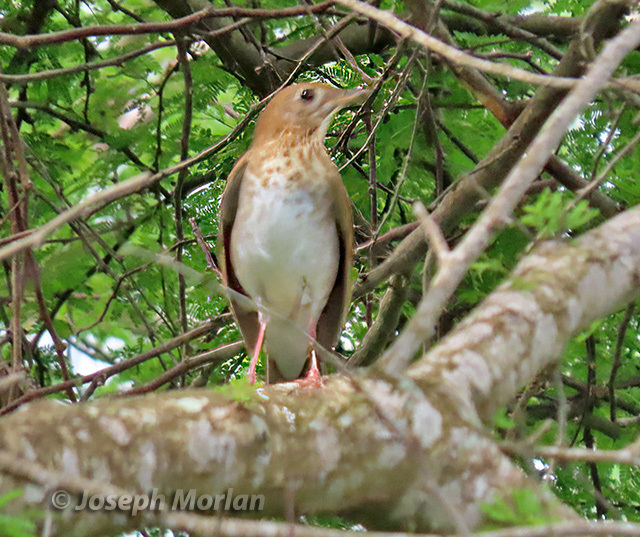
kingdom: Animalia
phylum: Chordata
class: Aves
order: Passeriformes
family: Turdidae
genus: Catharus
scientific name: Catharus fuscescens
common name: Veery
